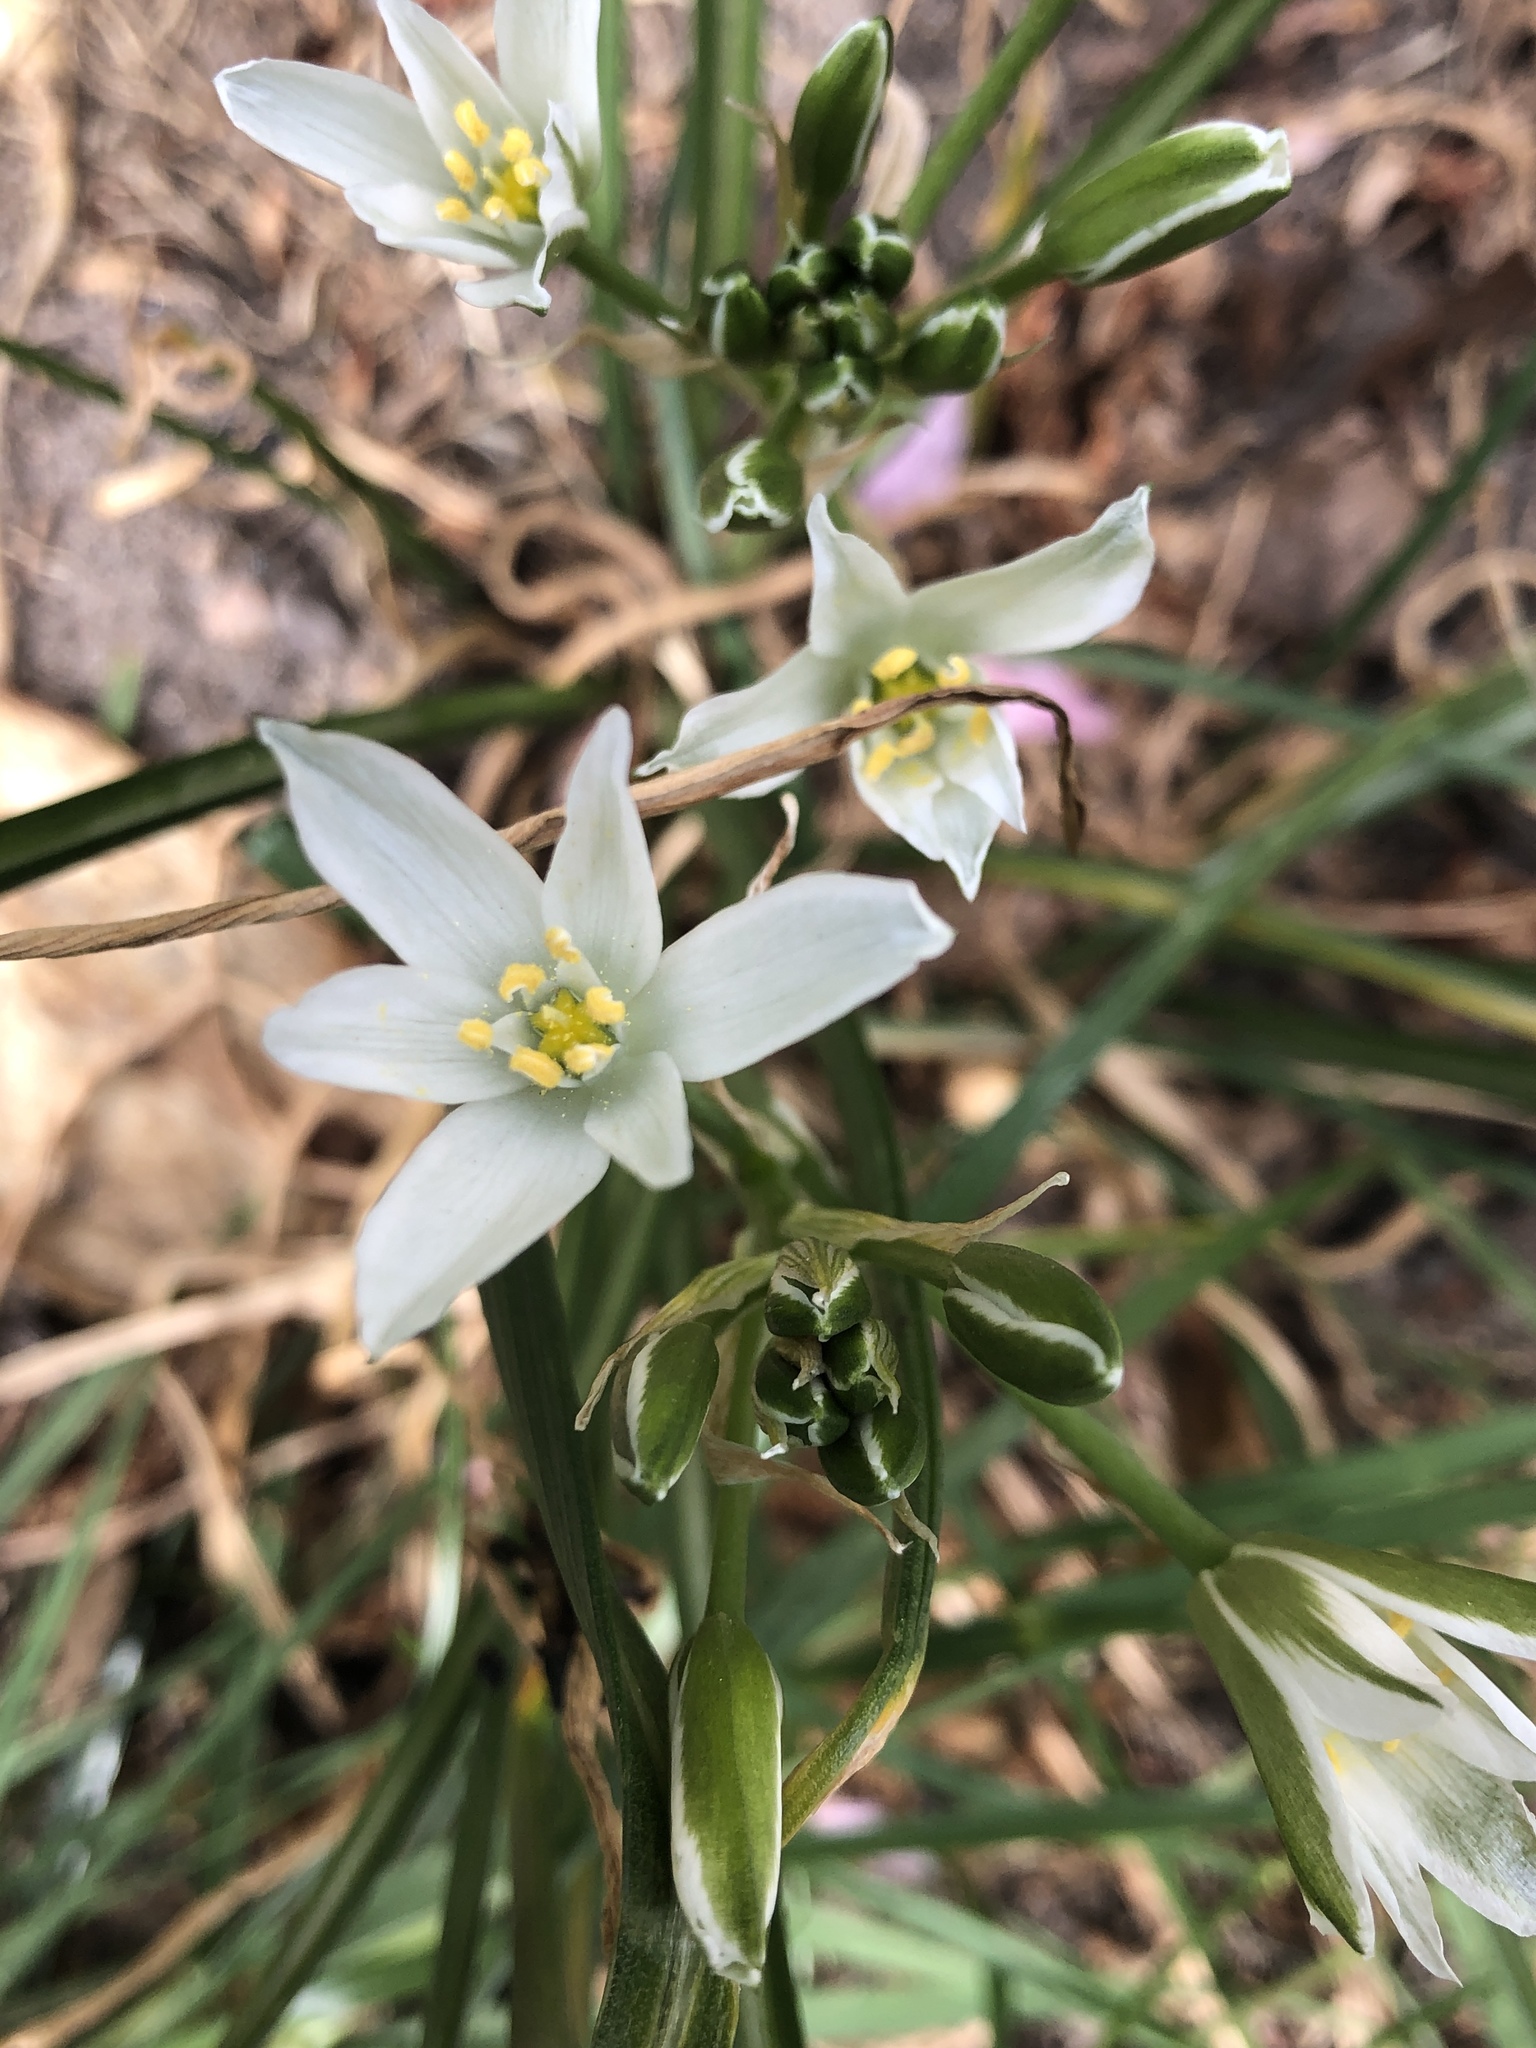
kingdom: Plantae
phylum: Tracheophyta
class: Liliopsida
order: Asparagales
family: Asparagaceae
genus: Ornithogalum
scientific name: Ornithogalum umbellatum
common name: Garden star-of-bethlehem
